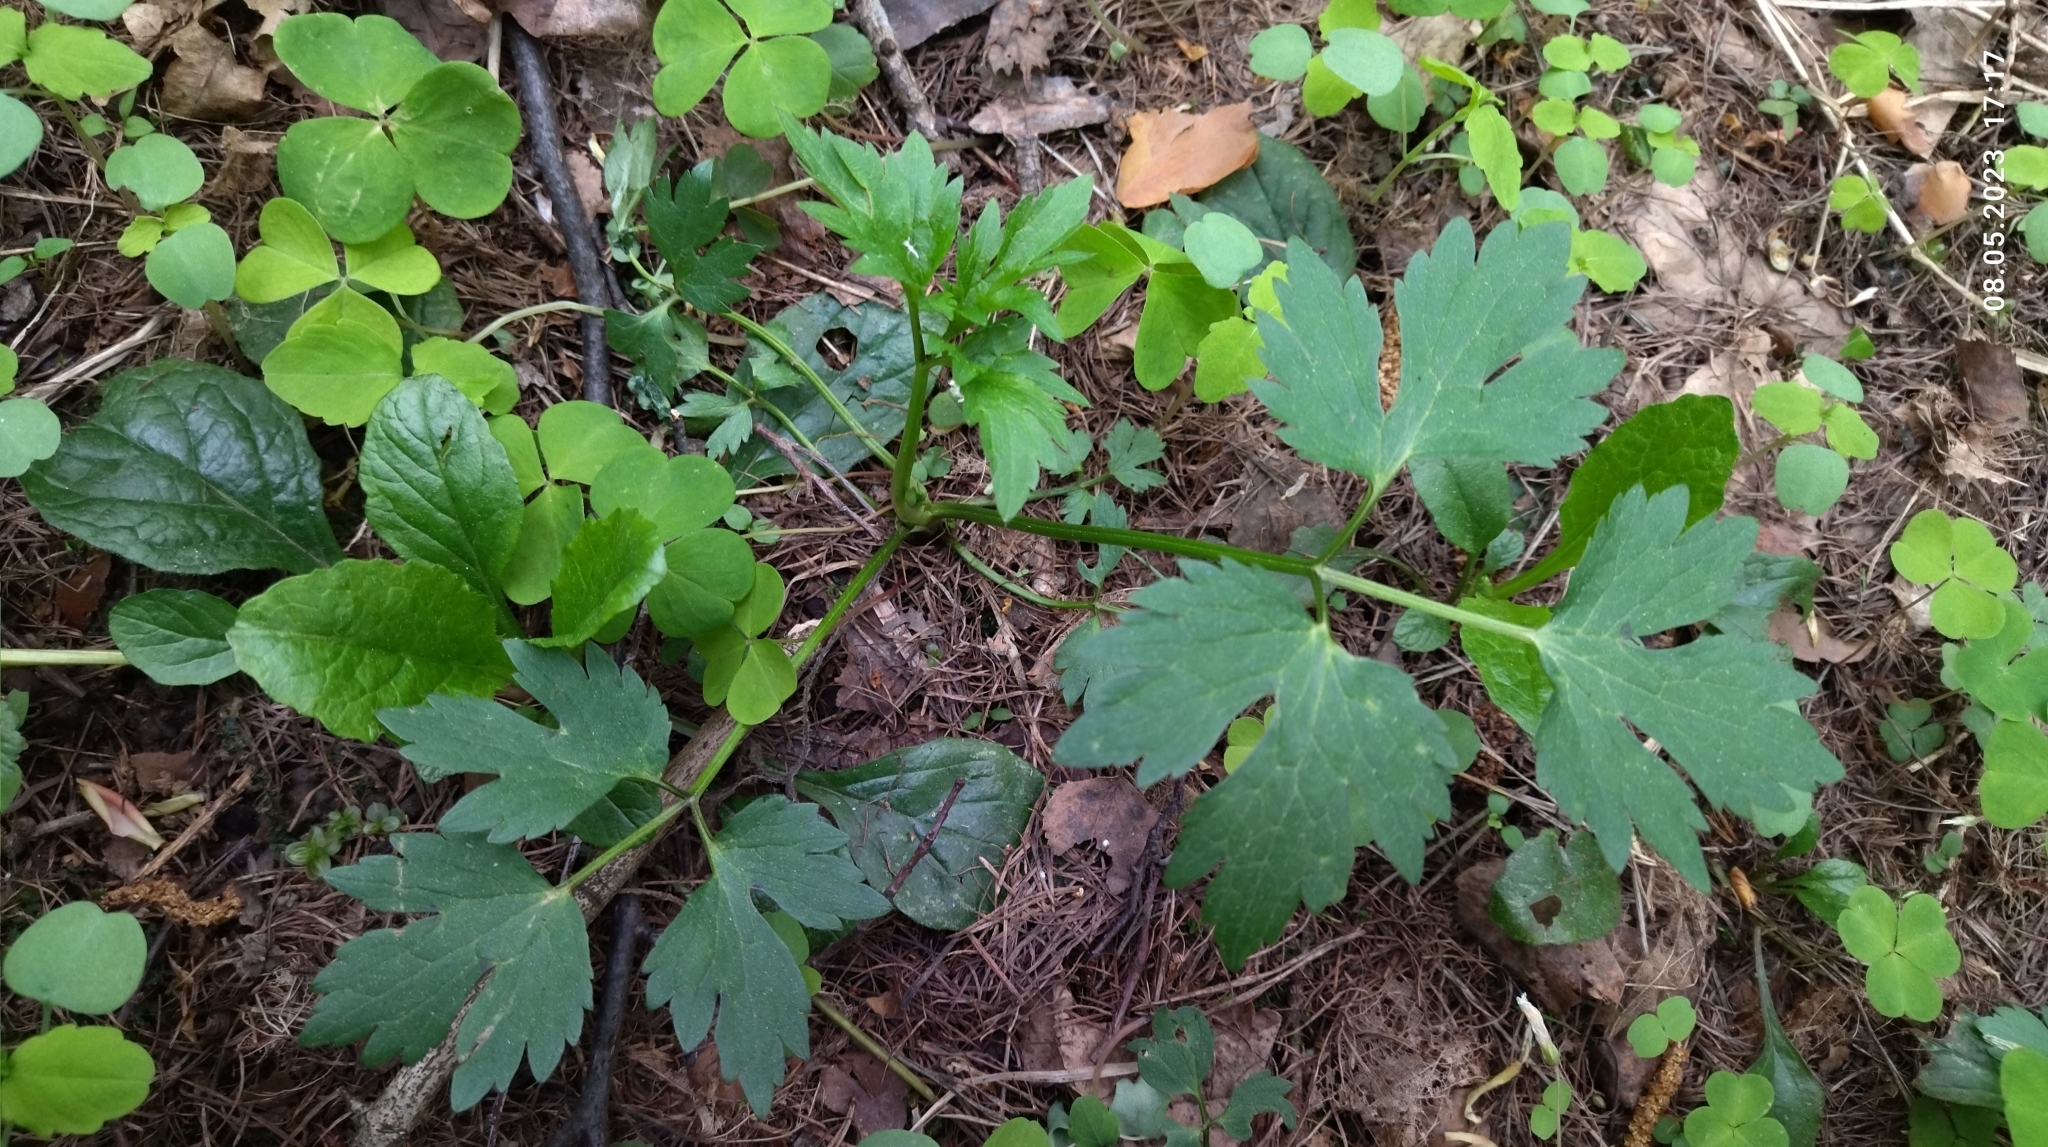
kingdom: Plantae
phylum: Tracheophyta
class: Magnoliopsida
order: Ranunculales
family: Ranunculaceae
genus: Ranunculus
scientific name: Ranunculus repens
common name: Creeping buttercup
